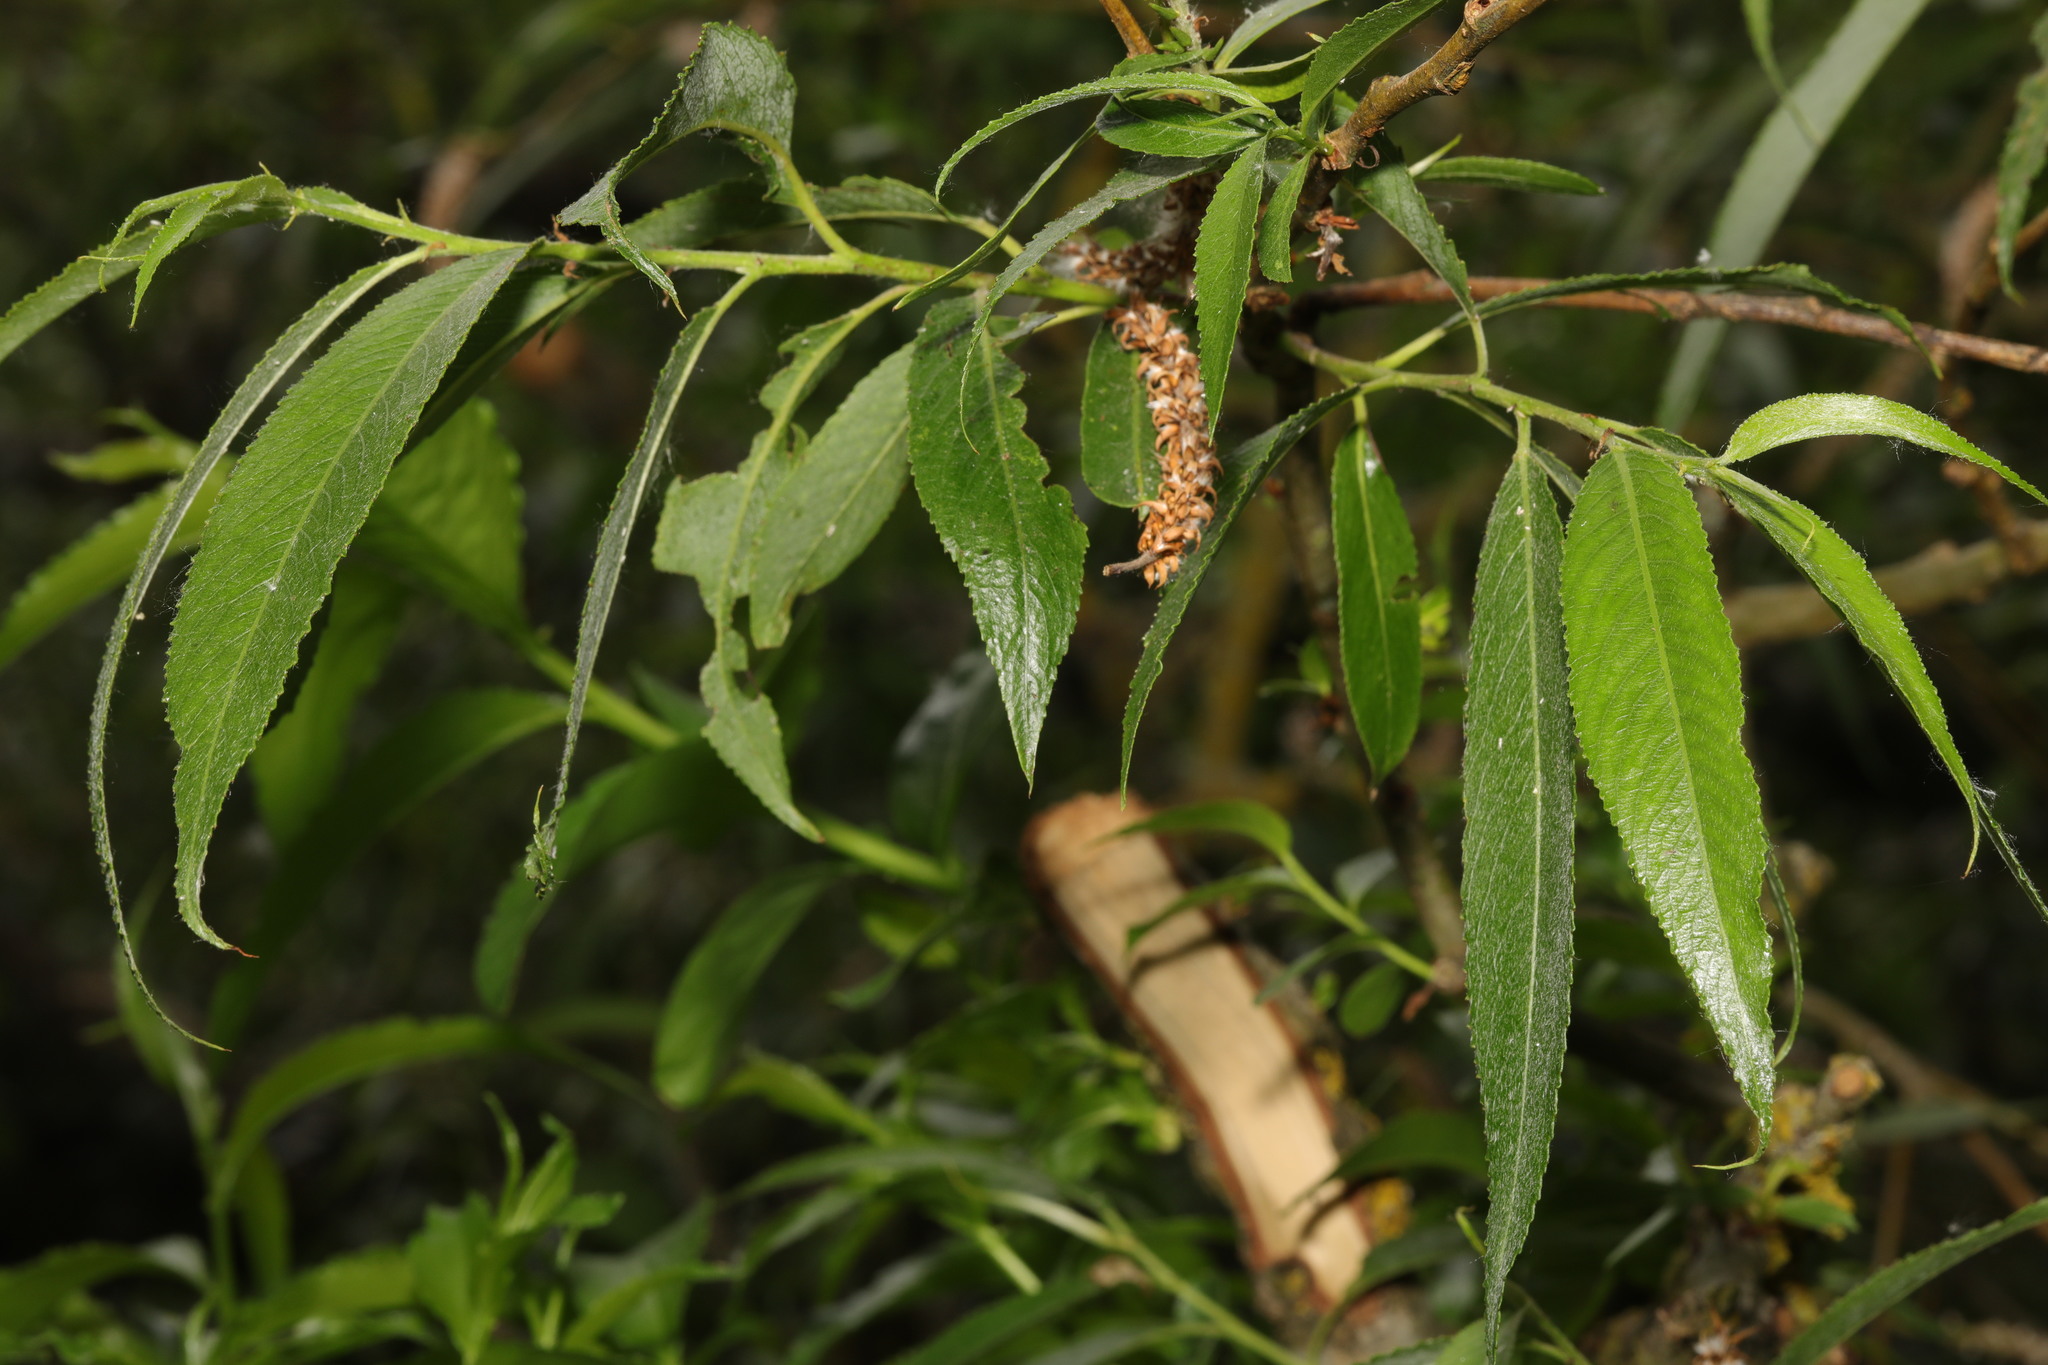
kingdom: Plantae
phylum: Tracheophyta
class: Magnoliopsida
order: Malpighiales
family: Salicaceae
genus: Salix
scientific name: Salix fragilis
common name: Crack willow
